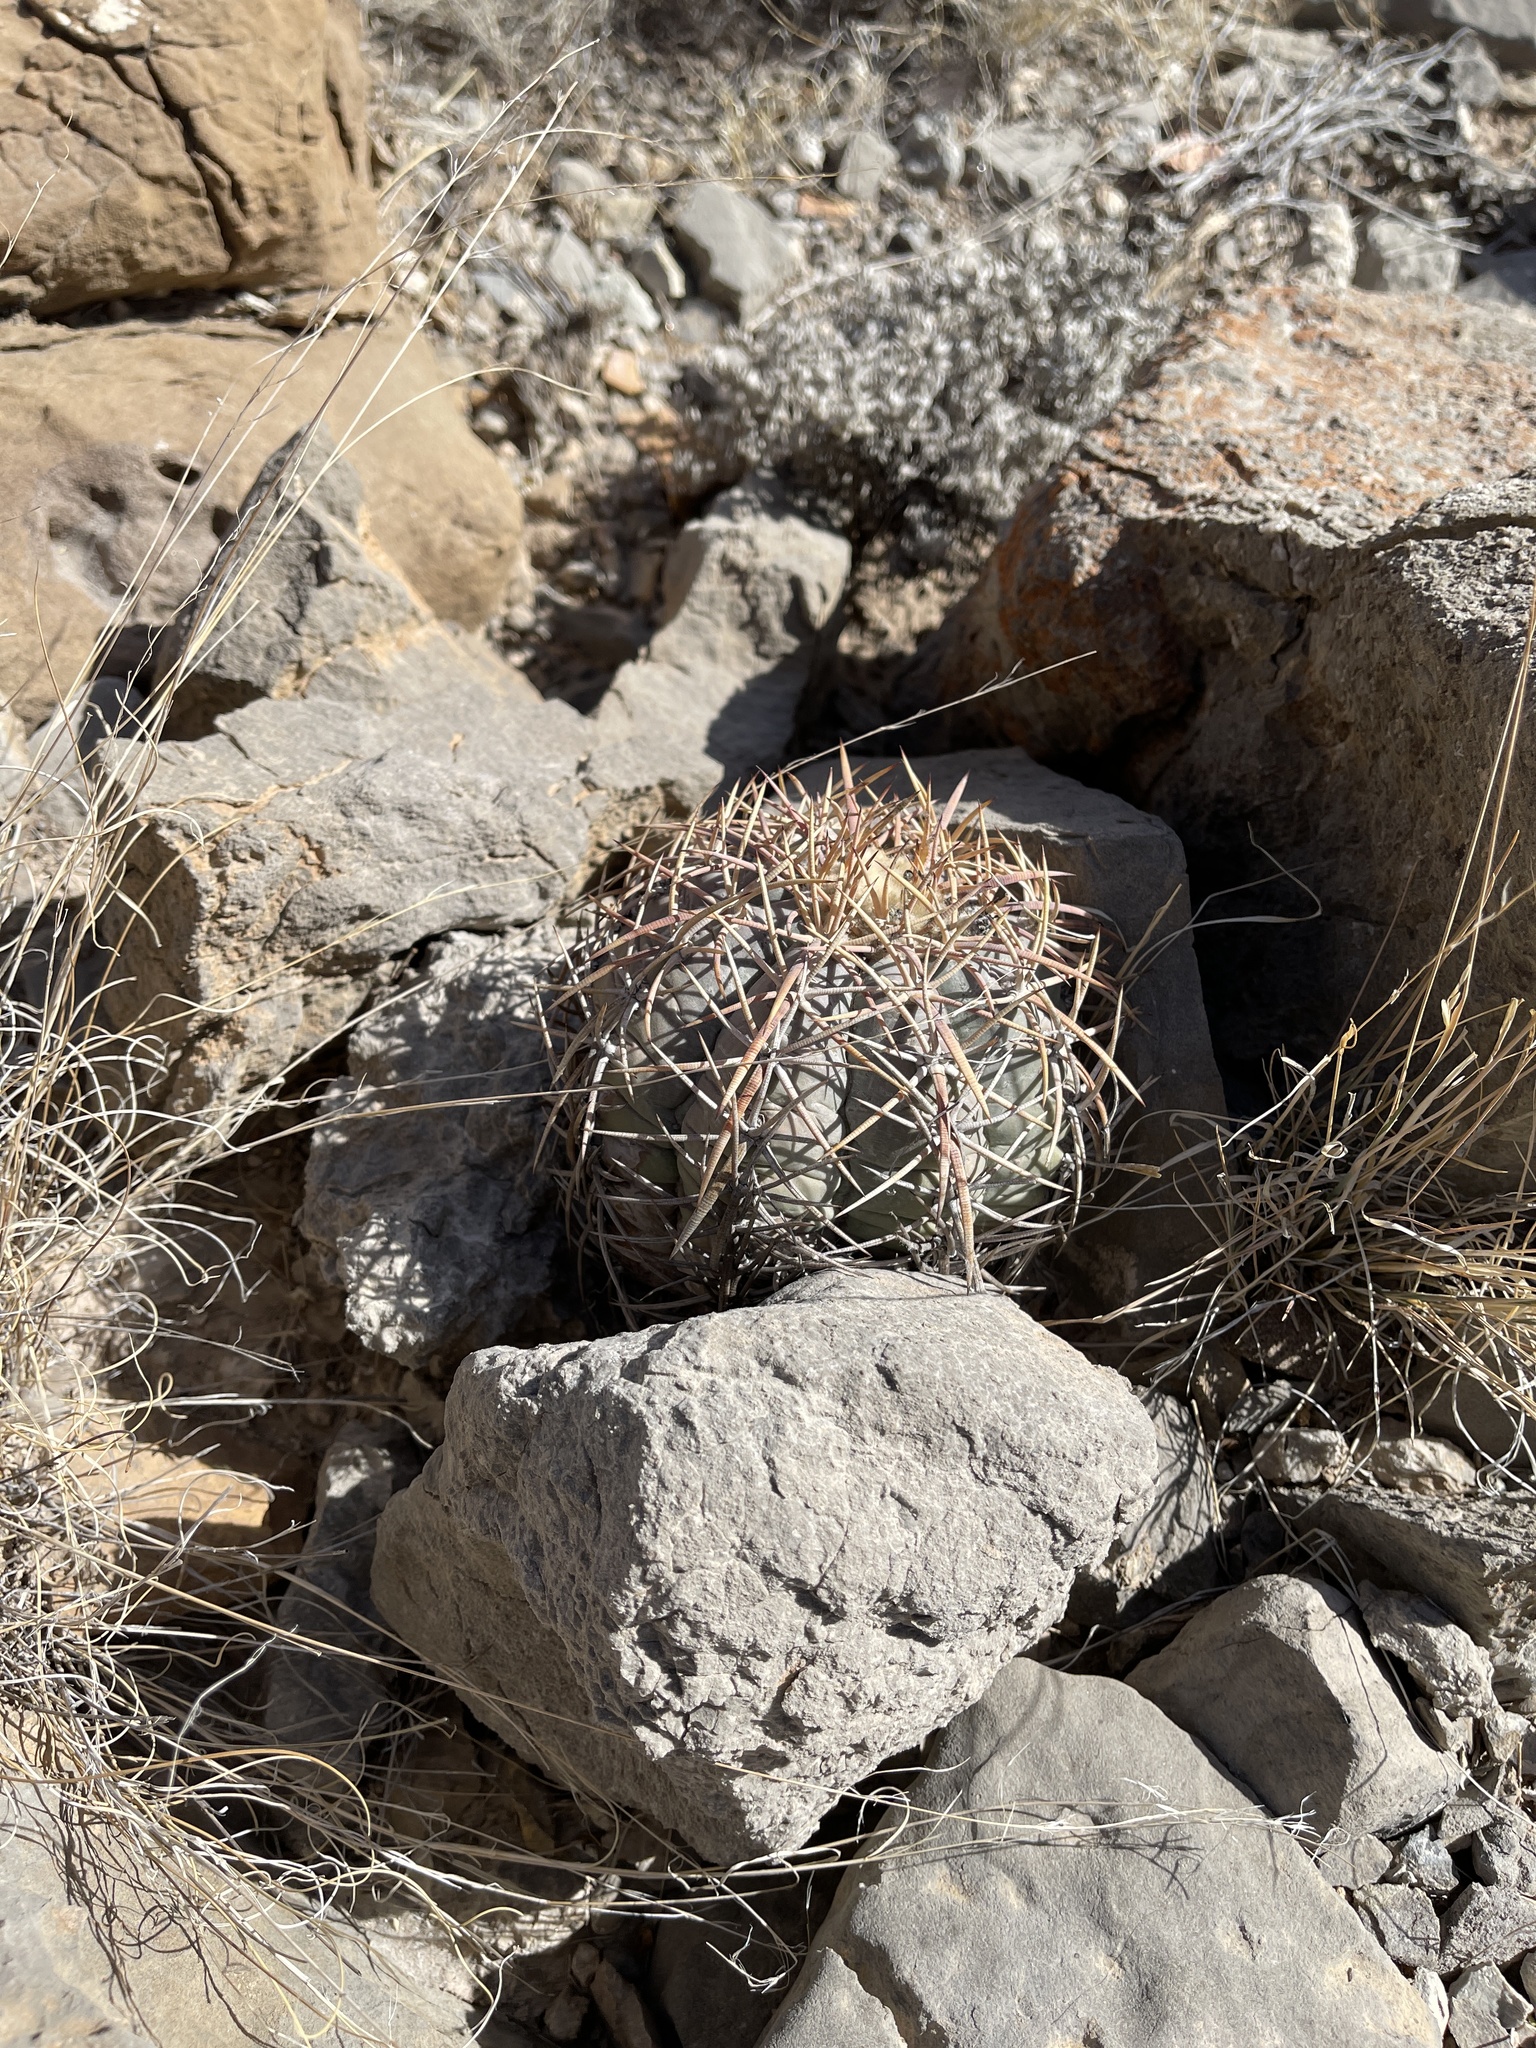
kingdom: Plantae
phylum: Tracheophyta
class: Magnoliopsida
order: Caryophyllales
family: Cactaceae
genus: Echinocactus
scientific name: Echinocactus horizonthalonius
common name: Devilshead
